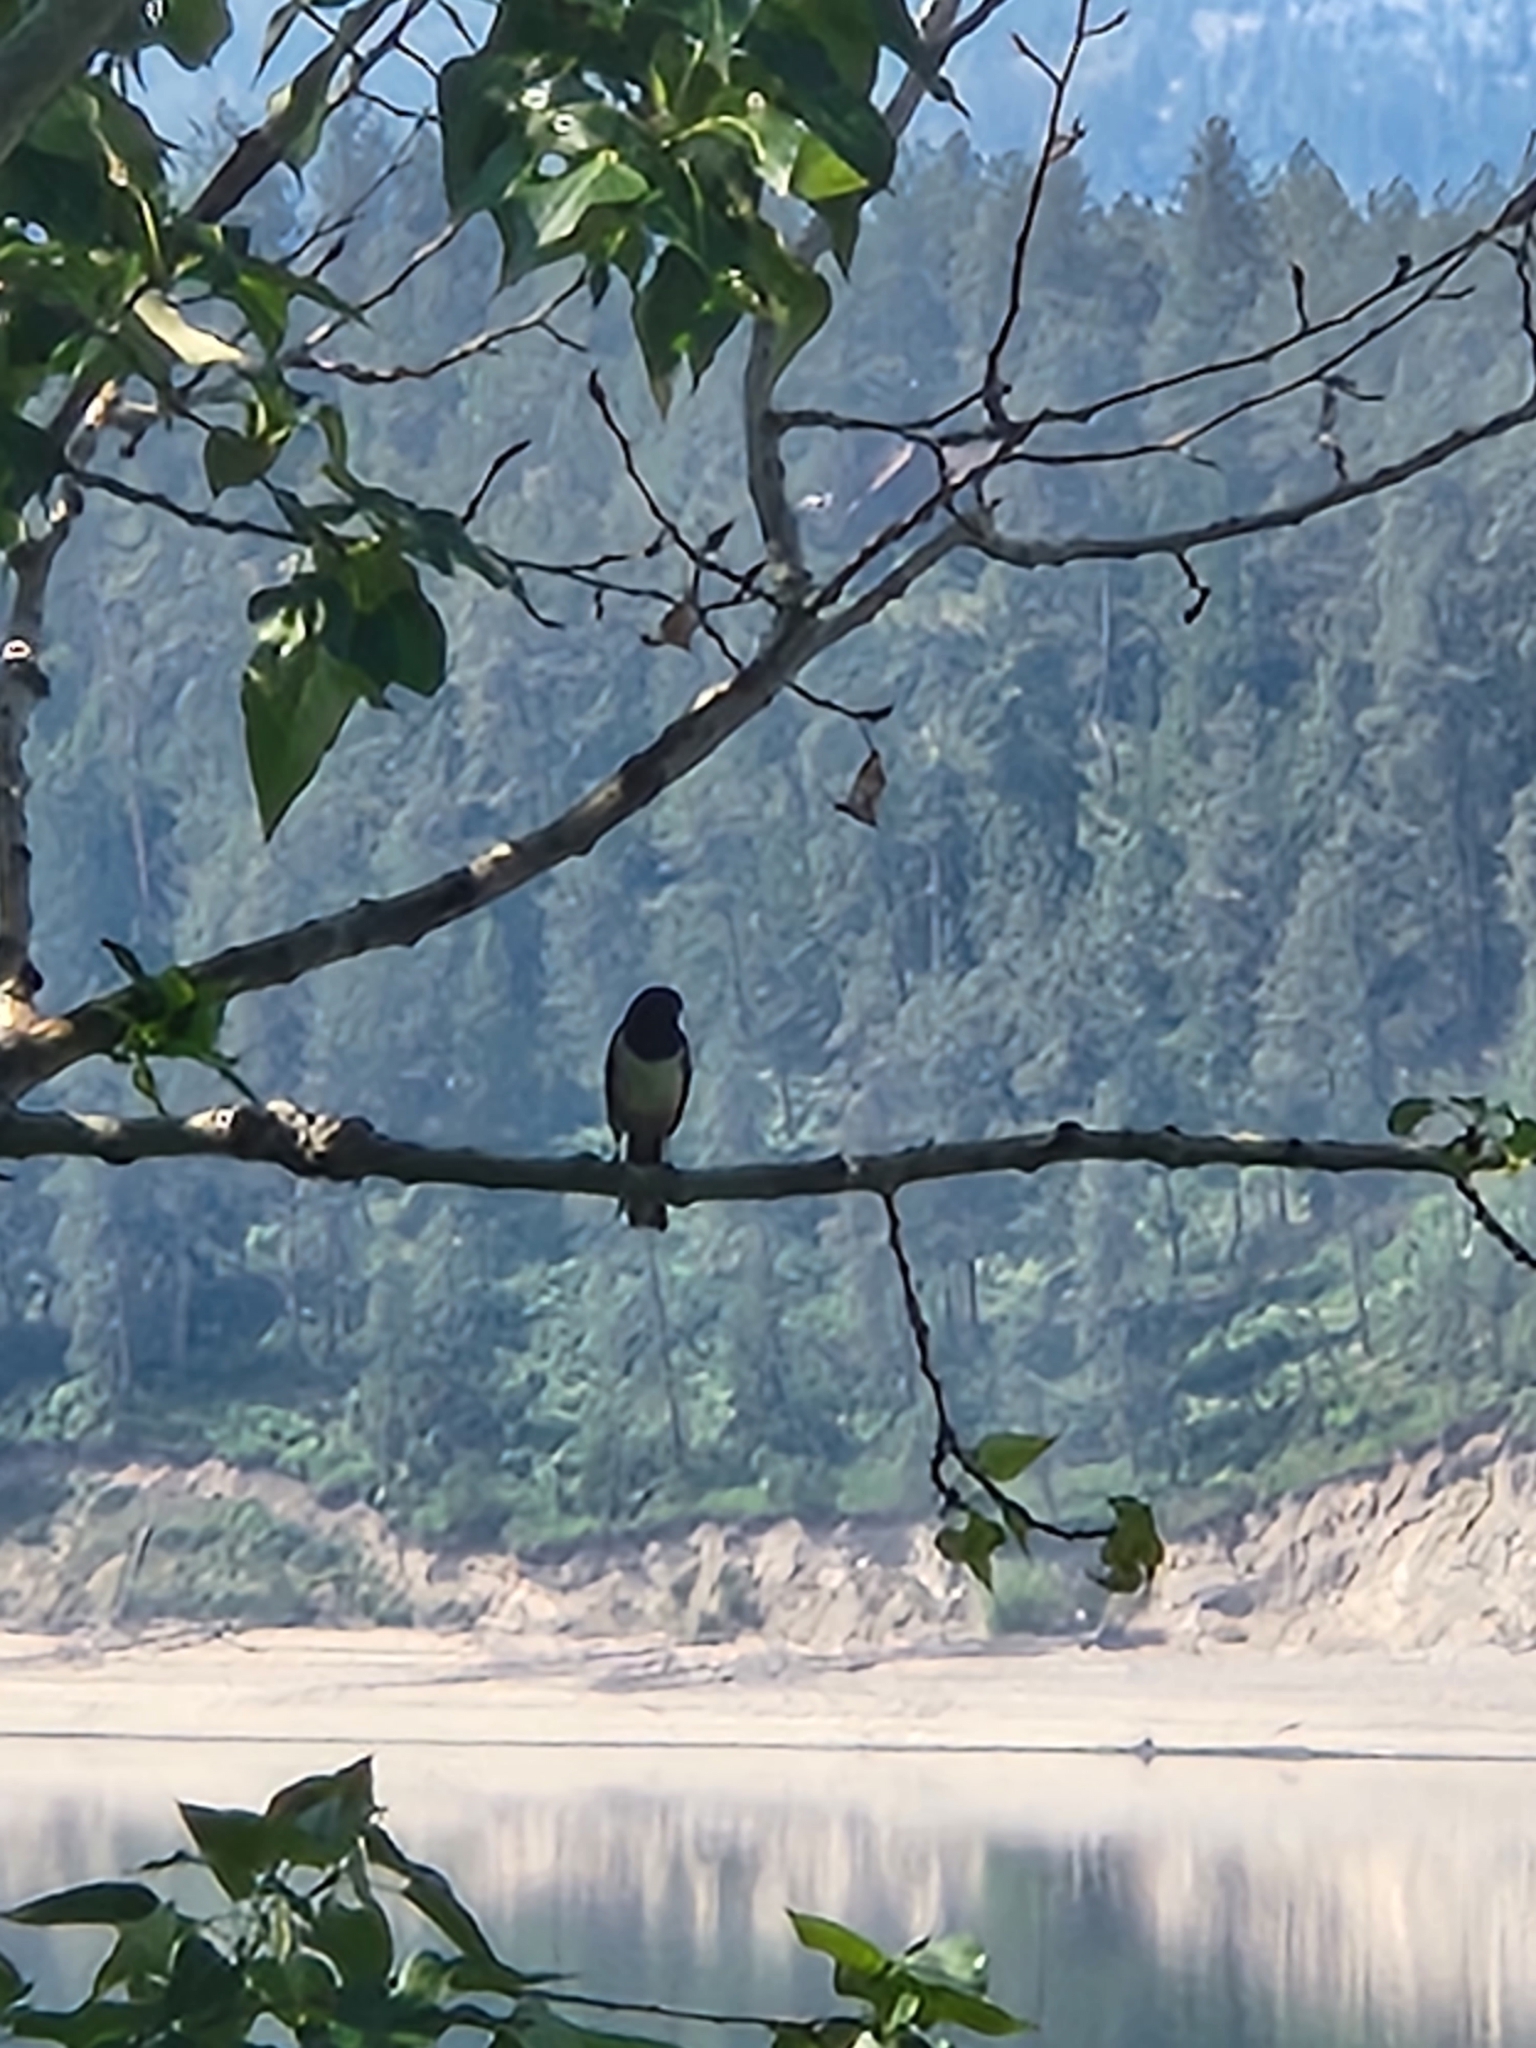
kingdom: Animalia
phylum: Chordata
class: Aves
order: Passeriformes
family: Passerellidae
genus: Pipilo
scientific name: Pipilo maculatus
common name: Spotted towhee
